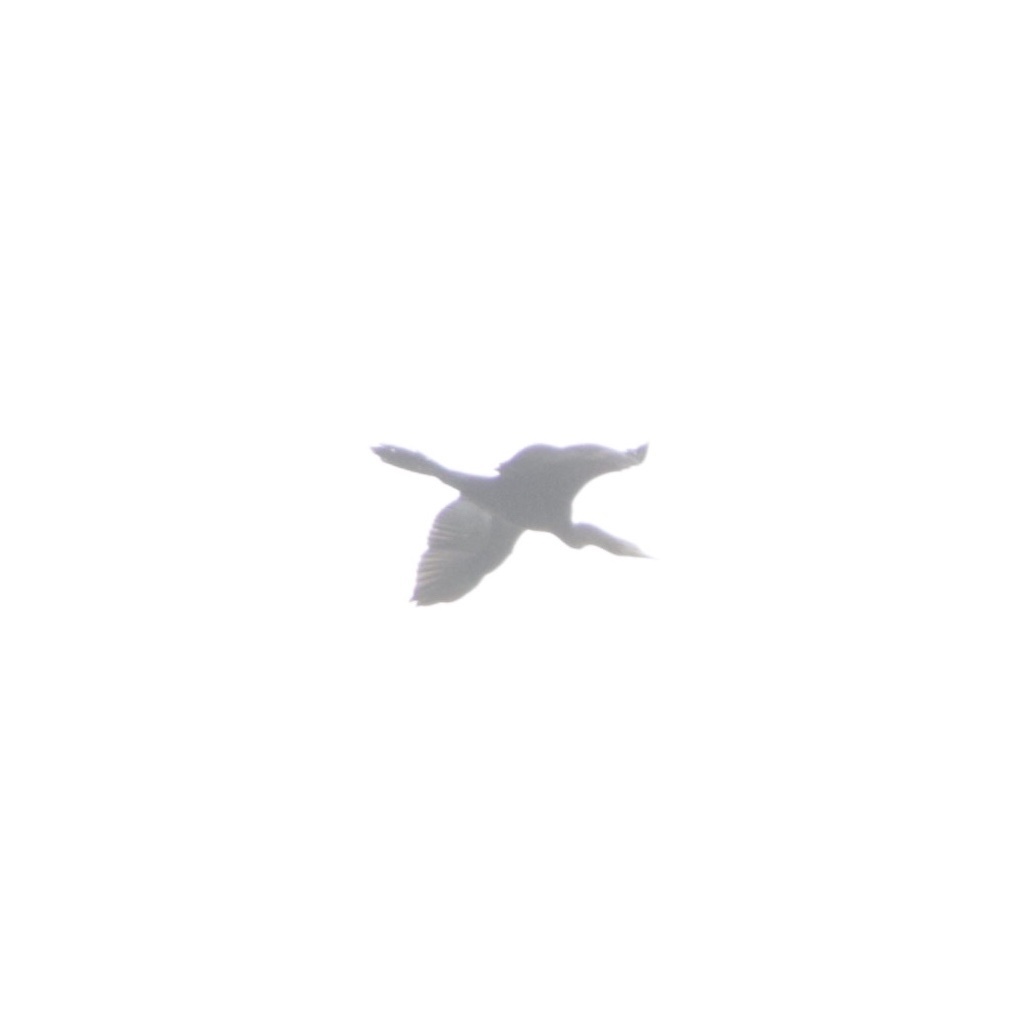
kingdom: Animalia
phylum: Chordata
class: Aves
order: Suliformes
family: Anhingidae
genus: Anhinga
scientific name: Anhinga anhinga
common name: Anhinga
